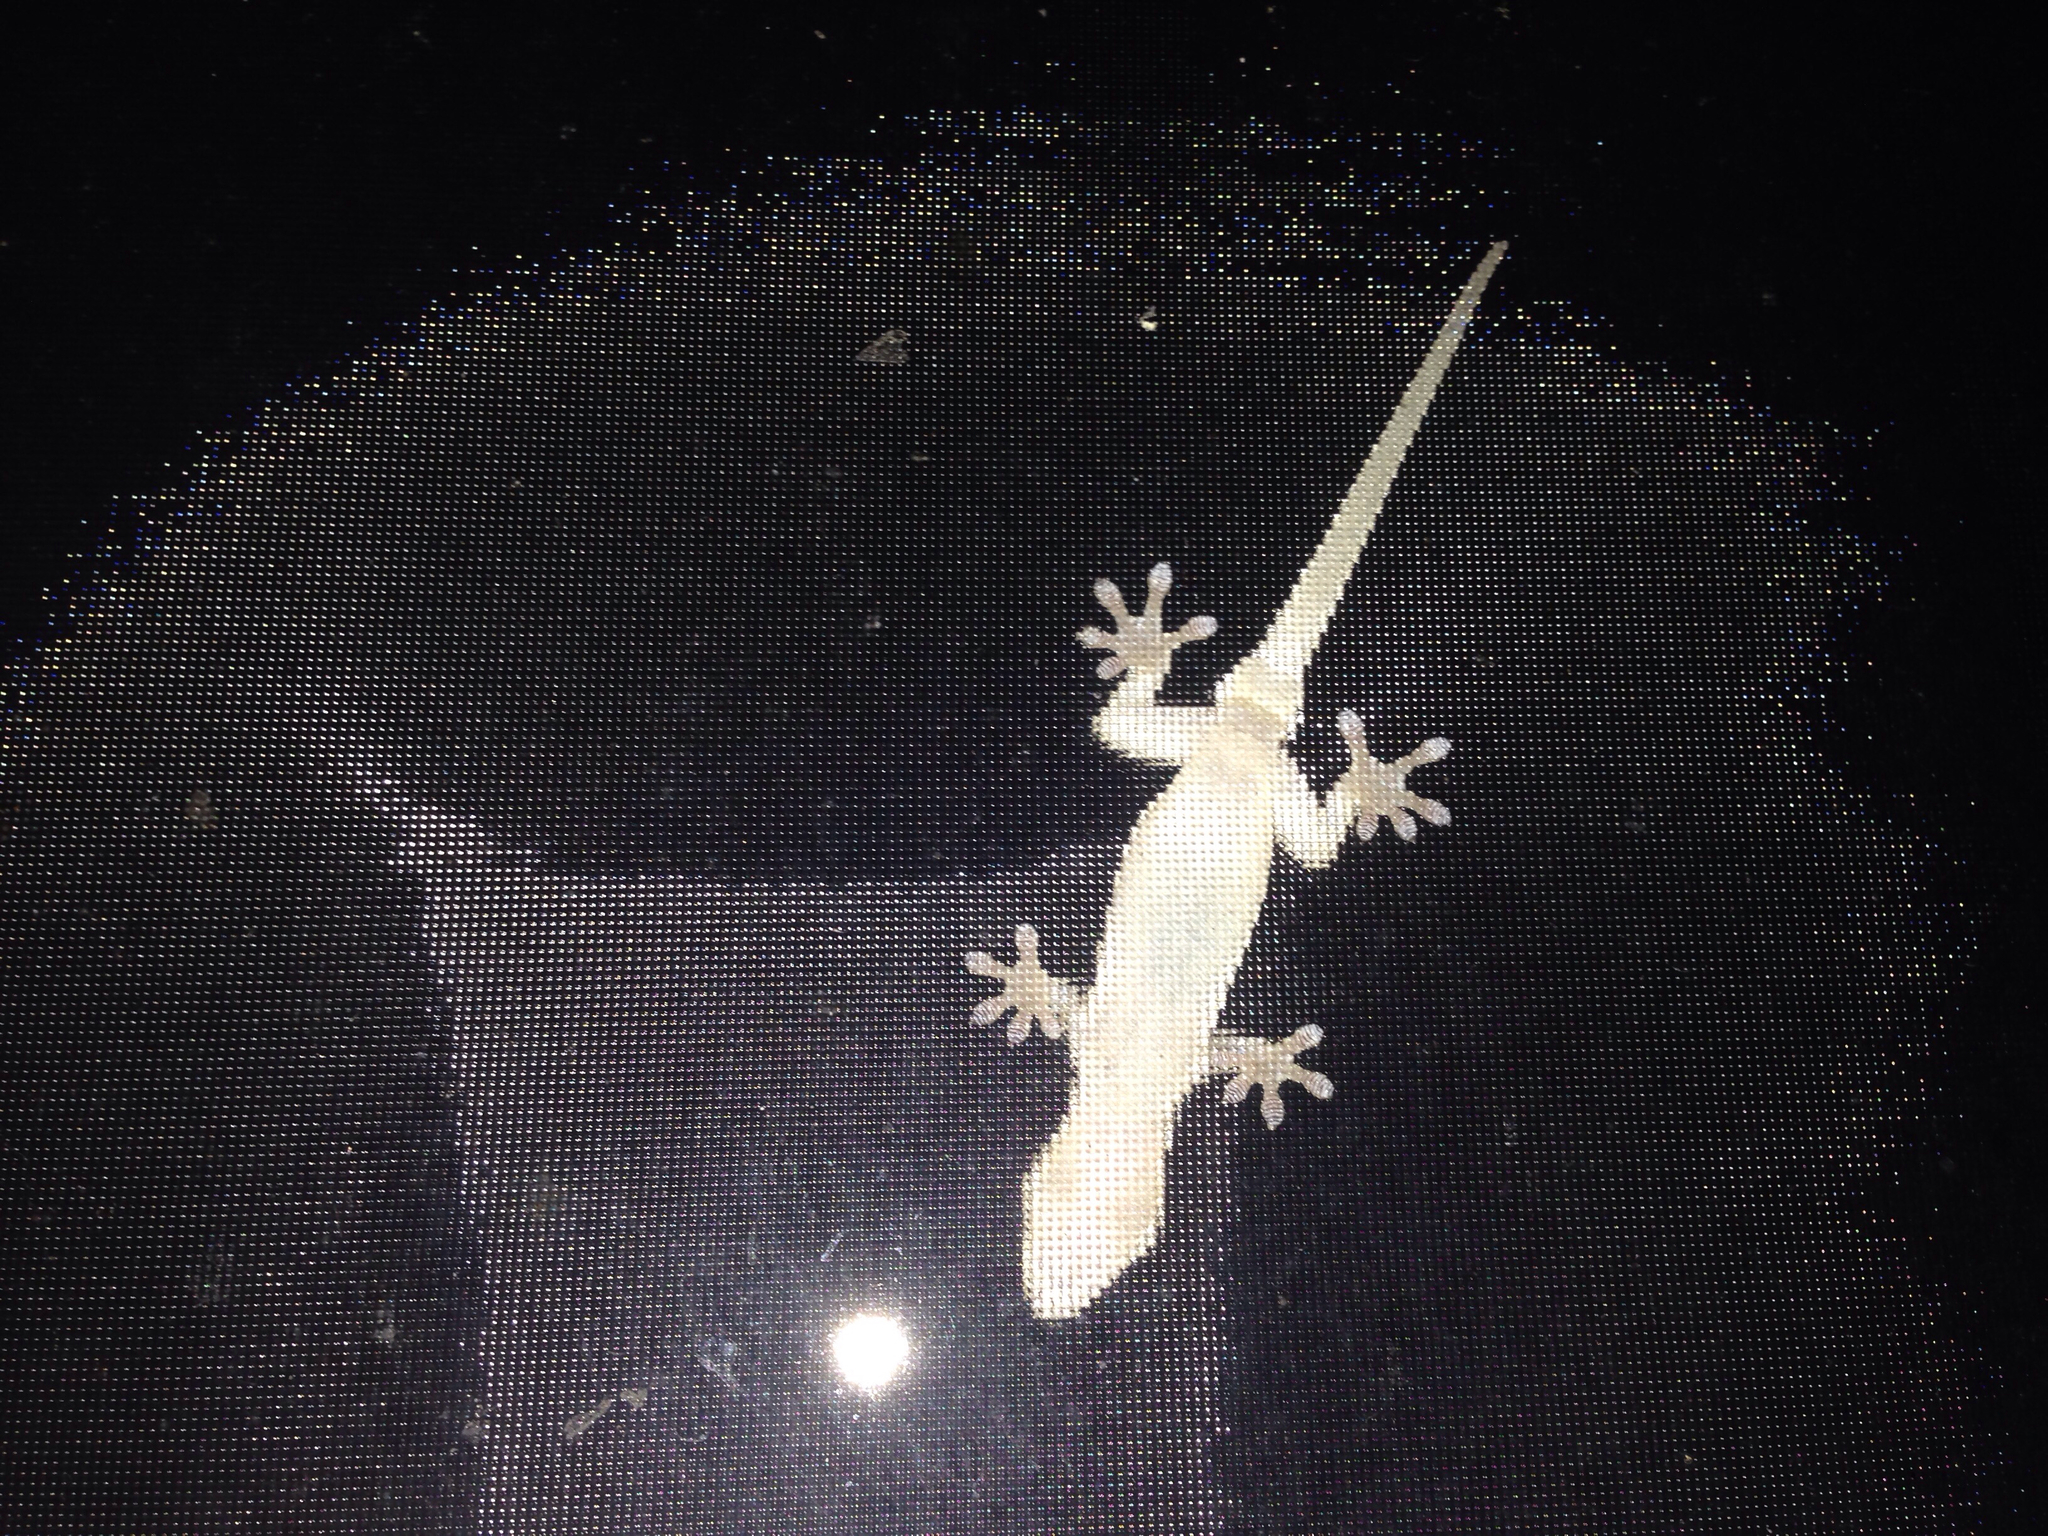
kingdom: Animalia
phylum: Chordata
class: Squamata
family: Gekkonidae
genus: Gekko
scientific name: Gekko japonicus
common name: Schlegel's japanese gecko
